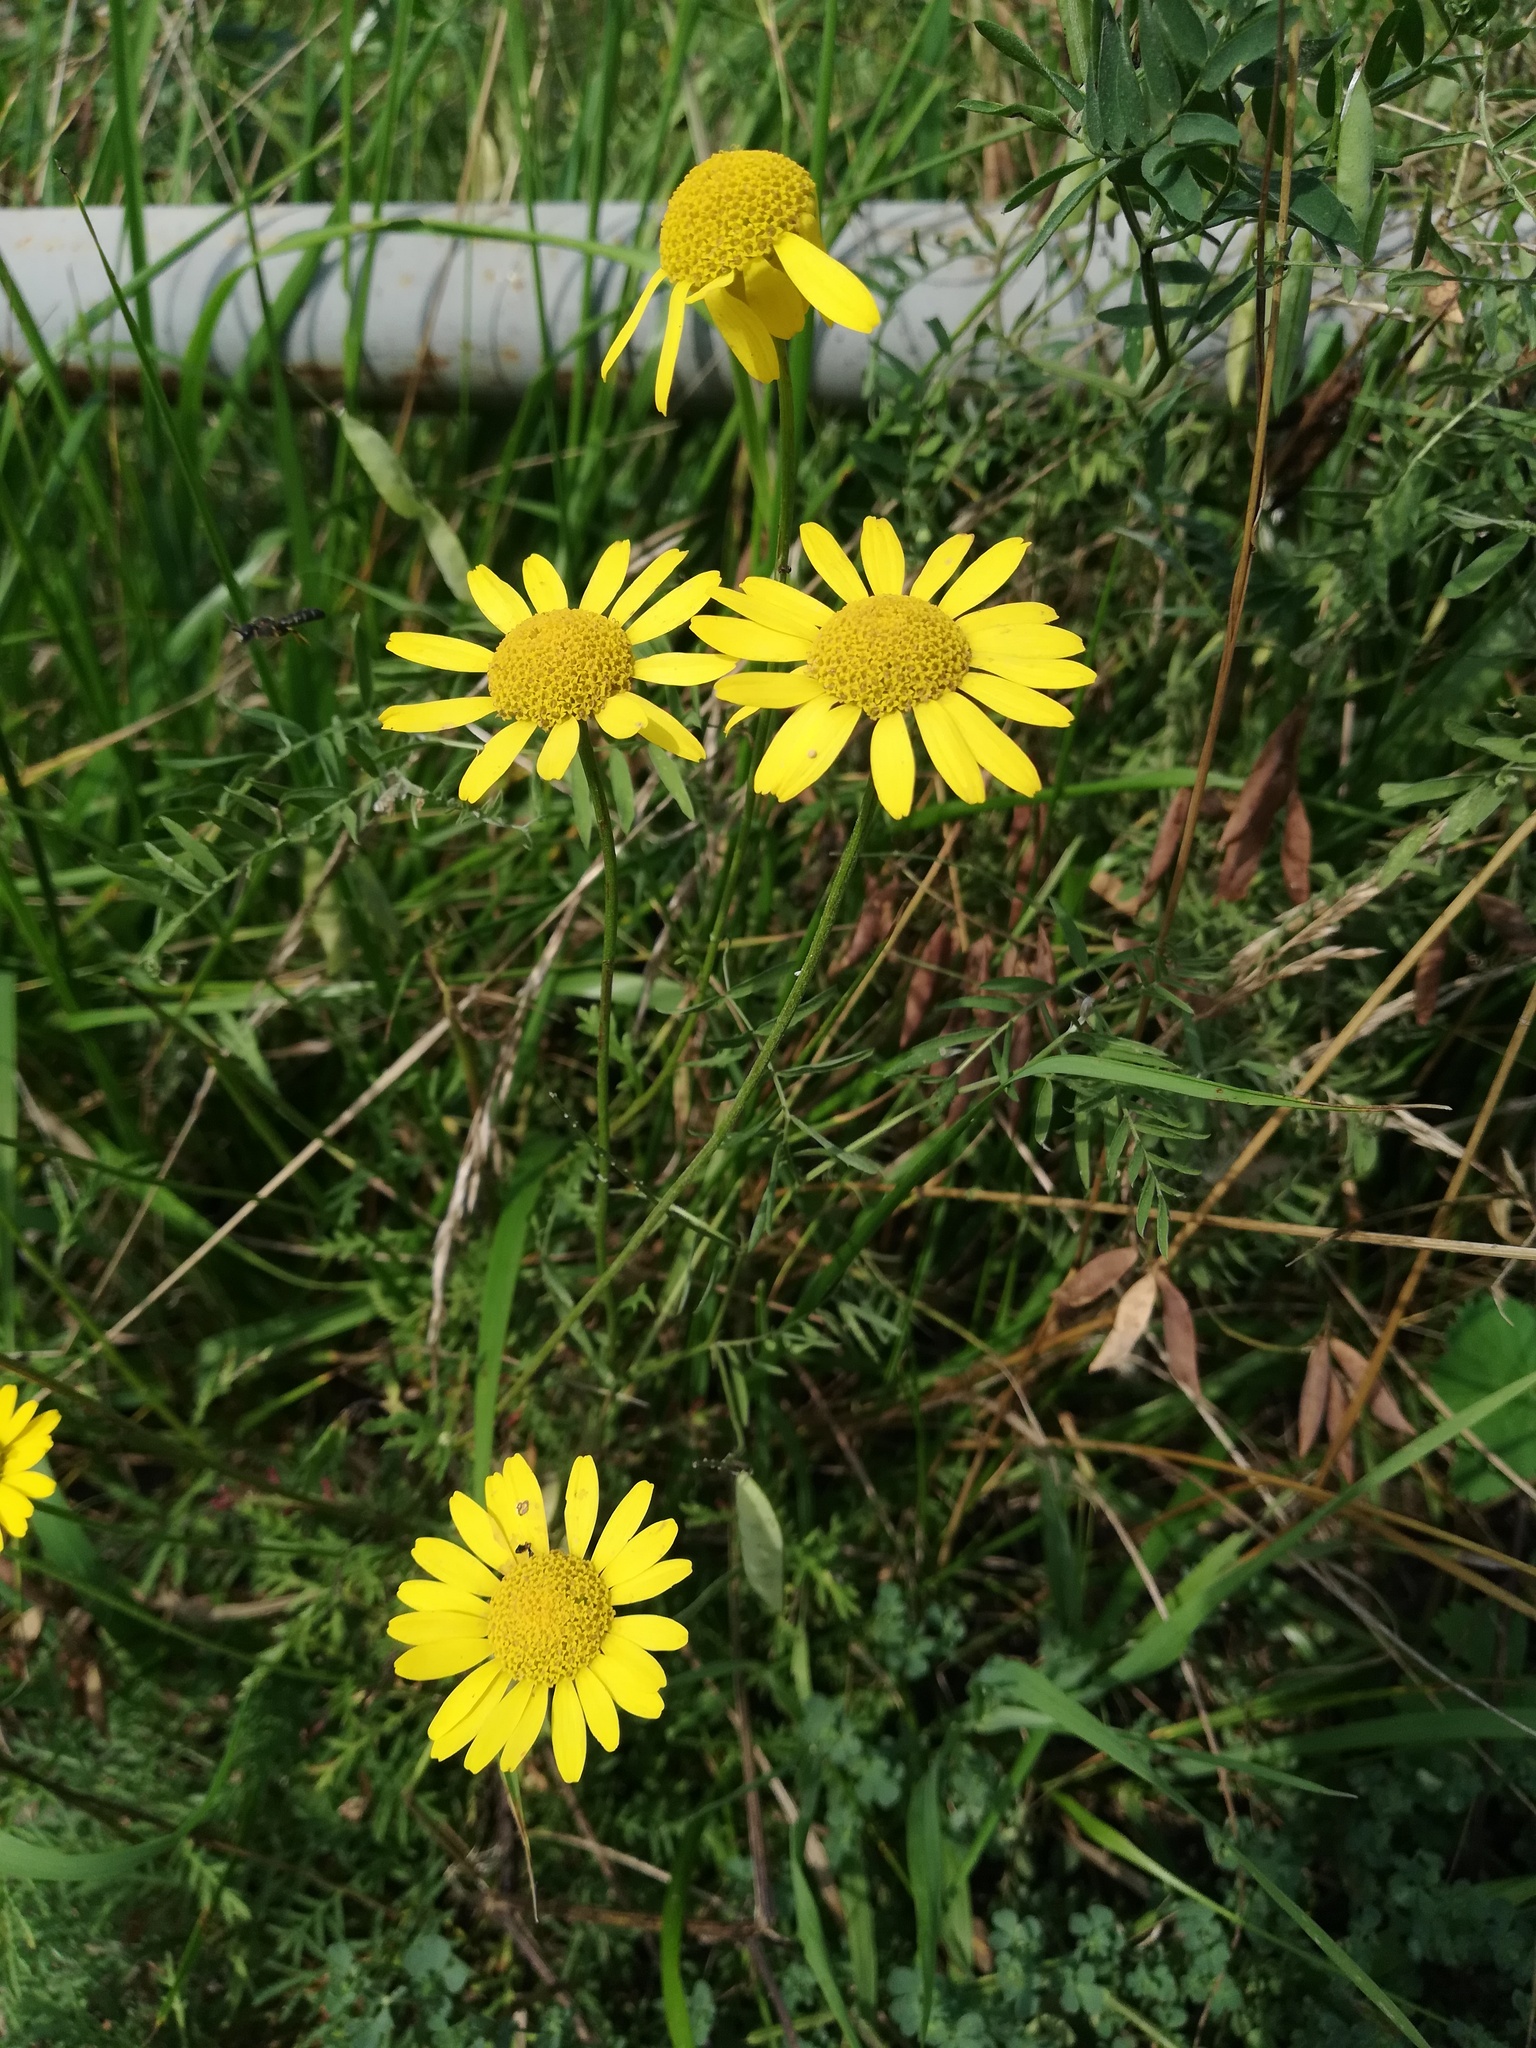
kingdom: Plantae
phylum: Tracheophyta
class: Magnoliopsida
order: Asterales
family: Asteraceae
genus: Cota
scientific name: Cota tinctoria
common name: Golden chamomile
